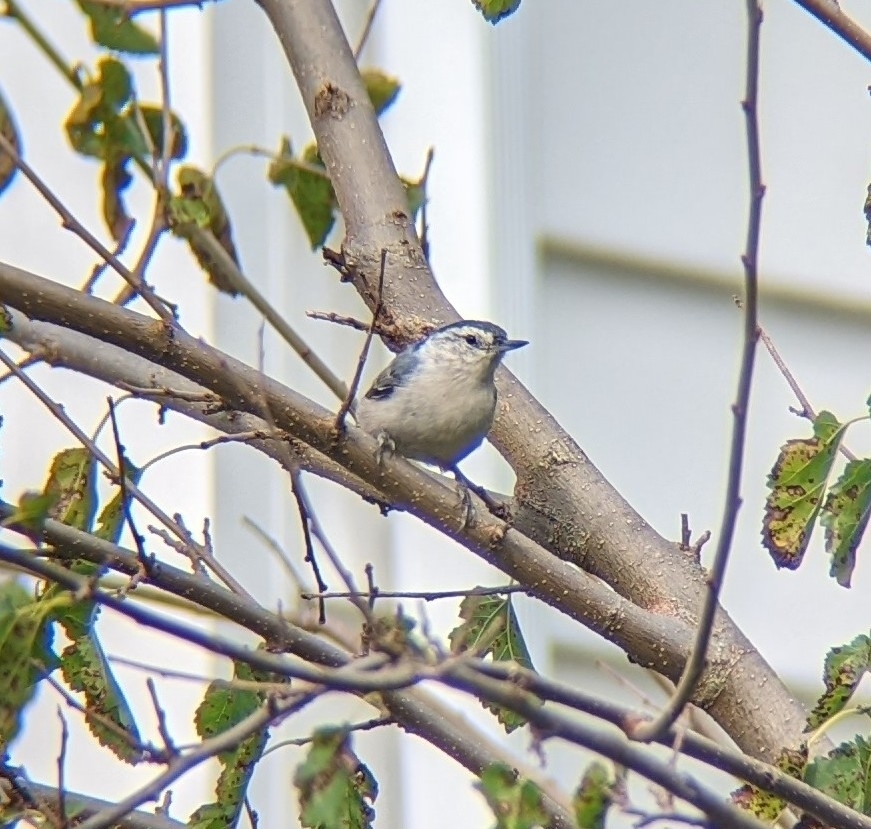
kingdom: Animalia
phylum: Chordata
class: Aves
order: Passeriformes
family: Sittidae
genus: Sitta
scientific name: Sitta carolinensis
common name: White-breasted nuthatch
